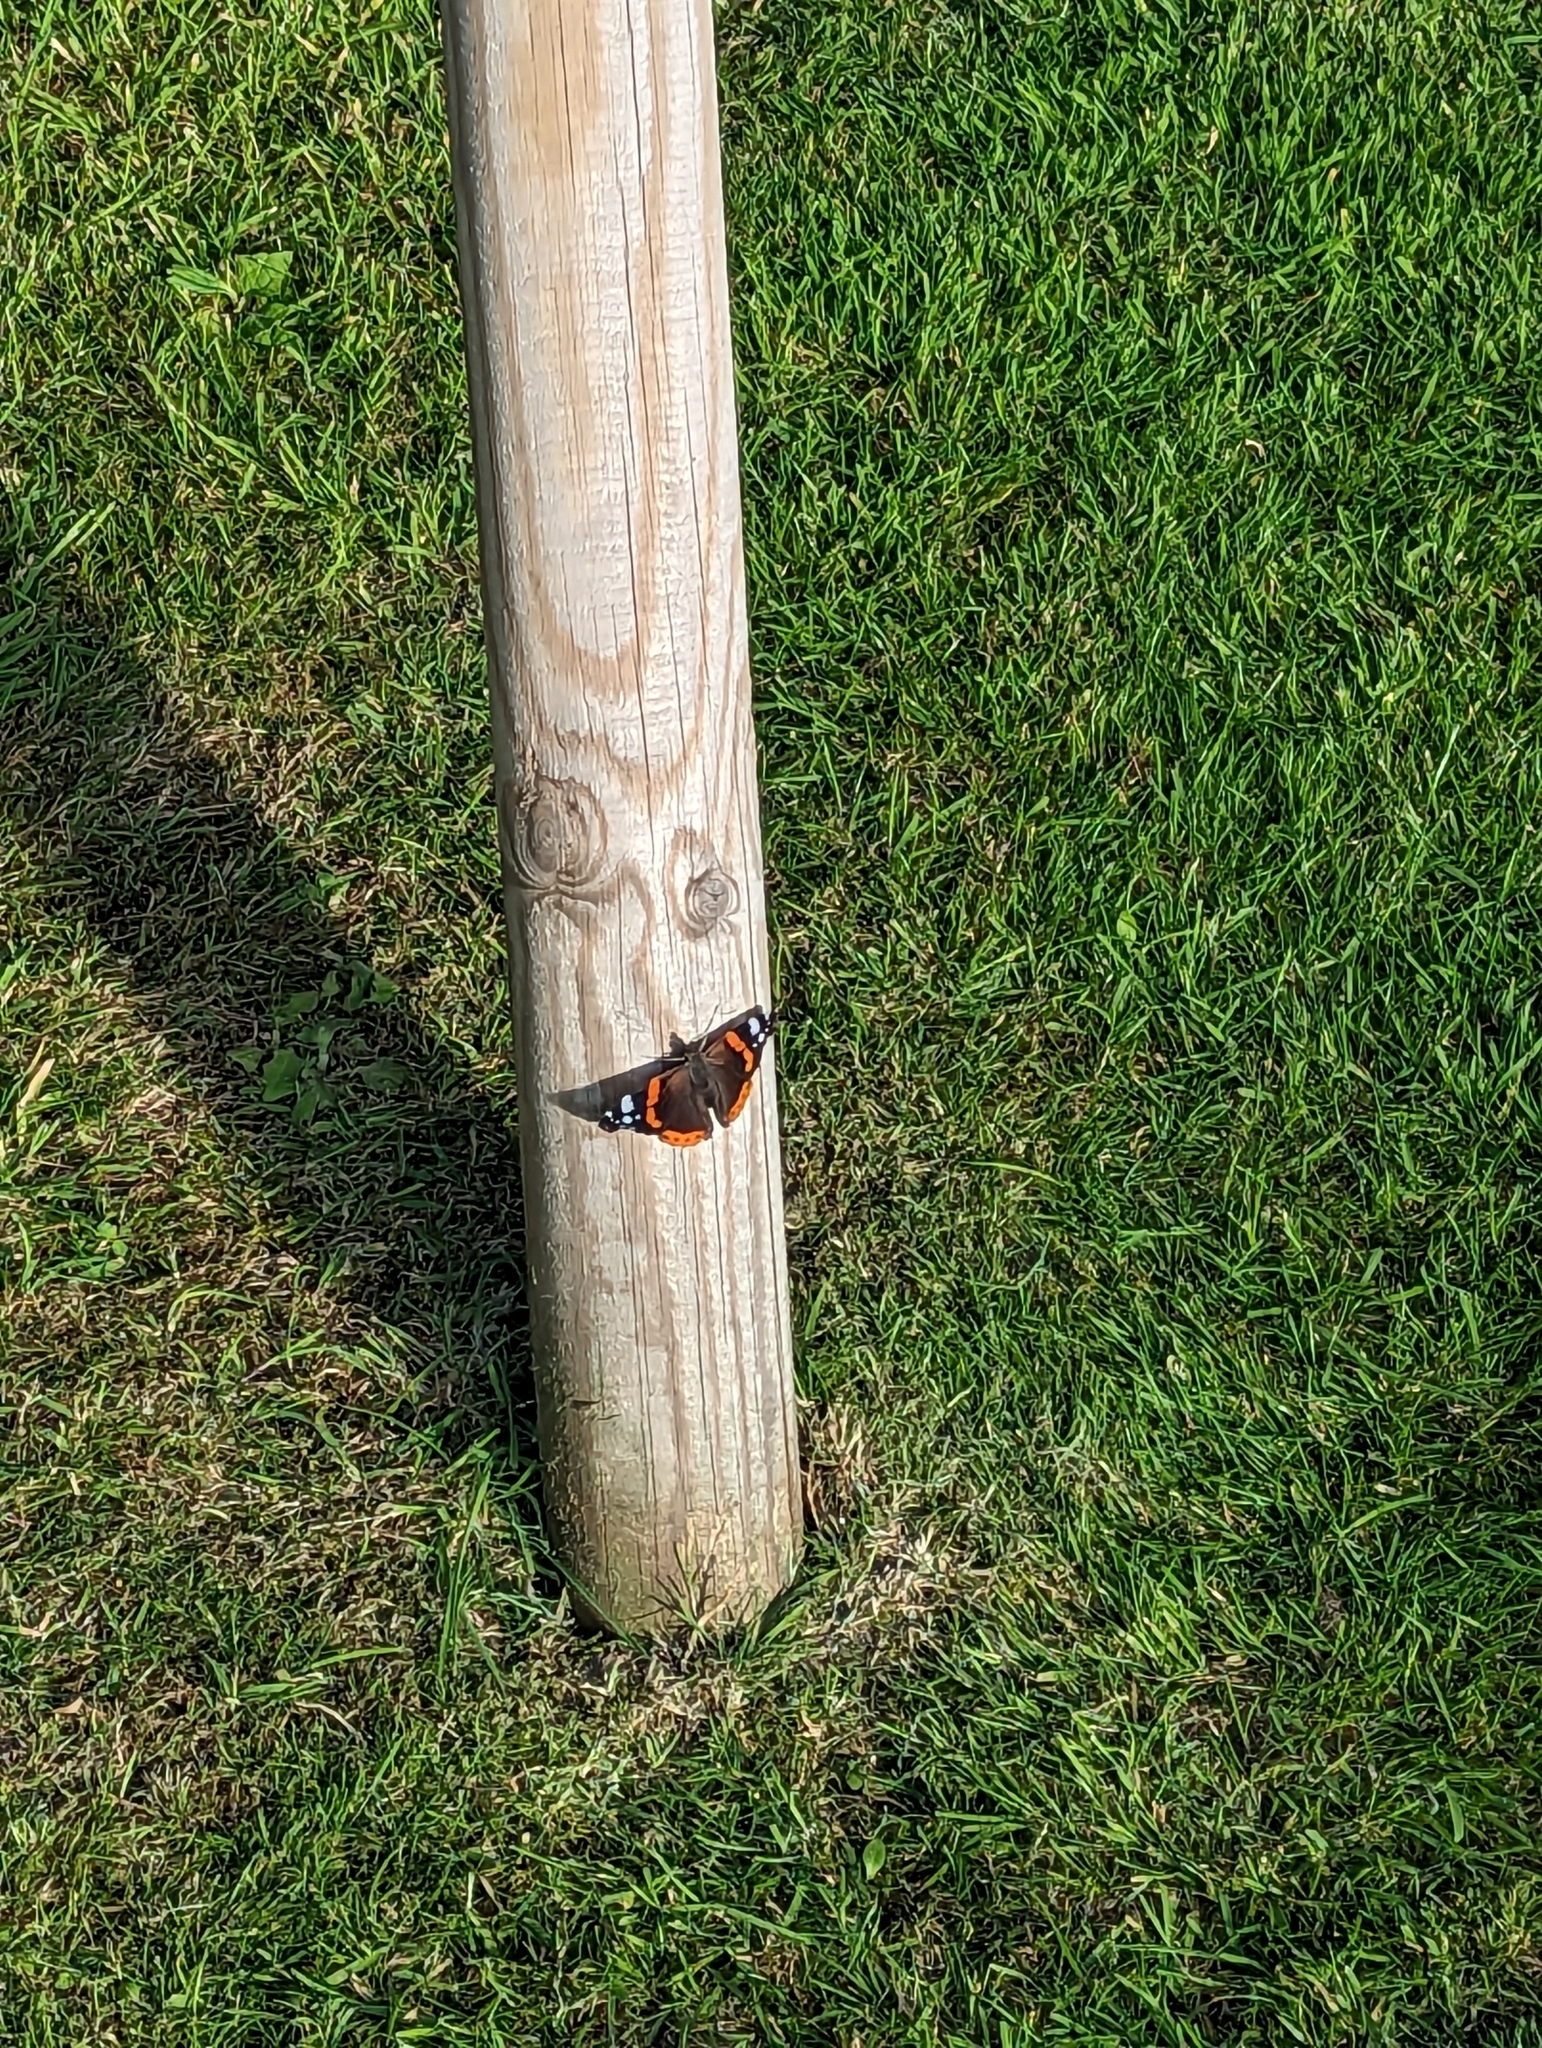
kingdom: Animalia
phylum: Arthropoda
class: Insecta
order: Lepidoptera
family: Nymphalidae
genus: Vanessa
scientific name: Vanessa atalanta
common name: Red admiral
